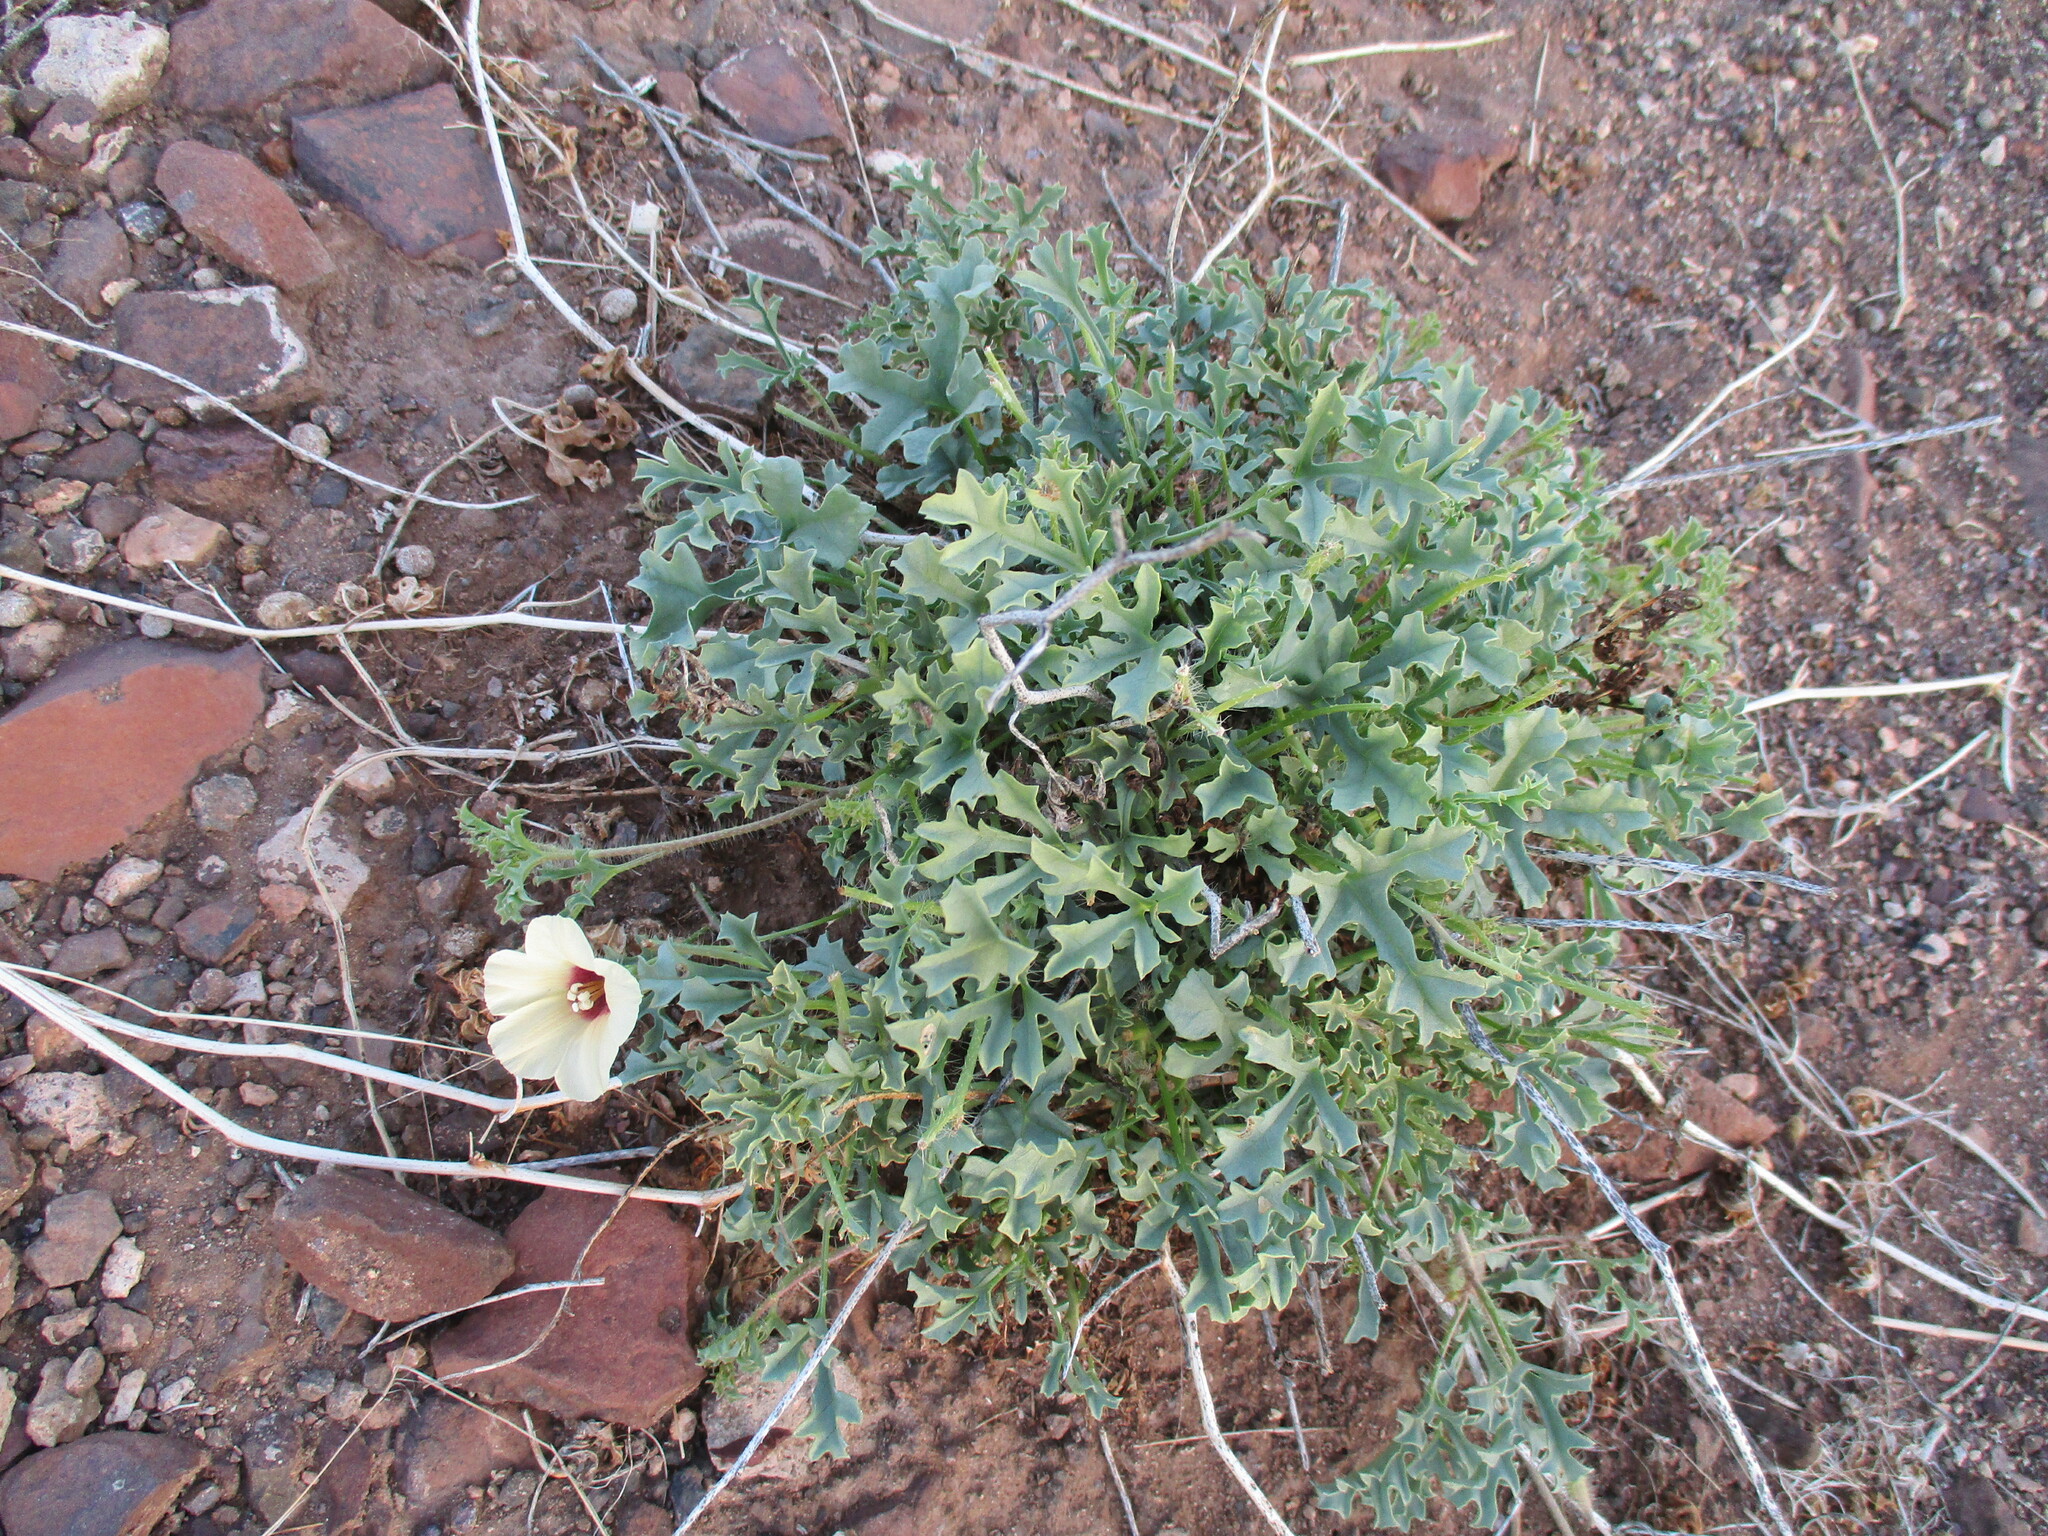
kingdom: Plantae
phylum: Tracheophyta
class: Magnoliopsida
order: Solanales
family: Convolvulaceae
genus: Distimake
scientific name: Distimake guerichii
